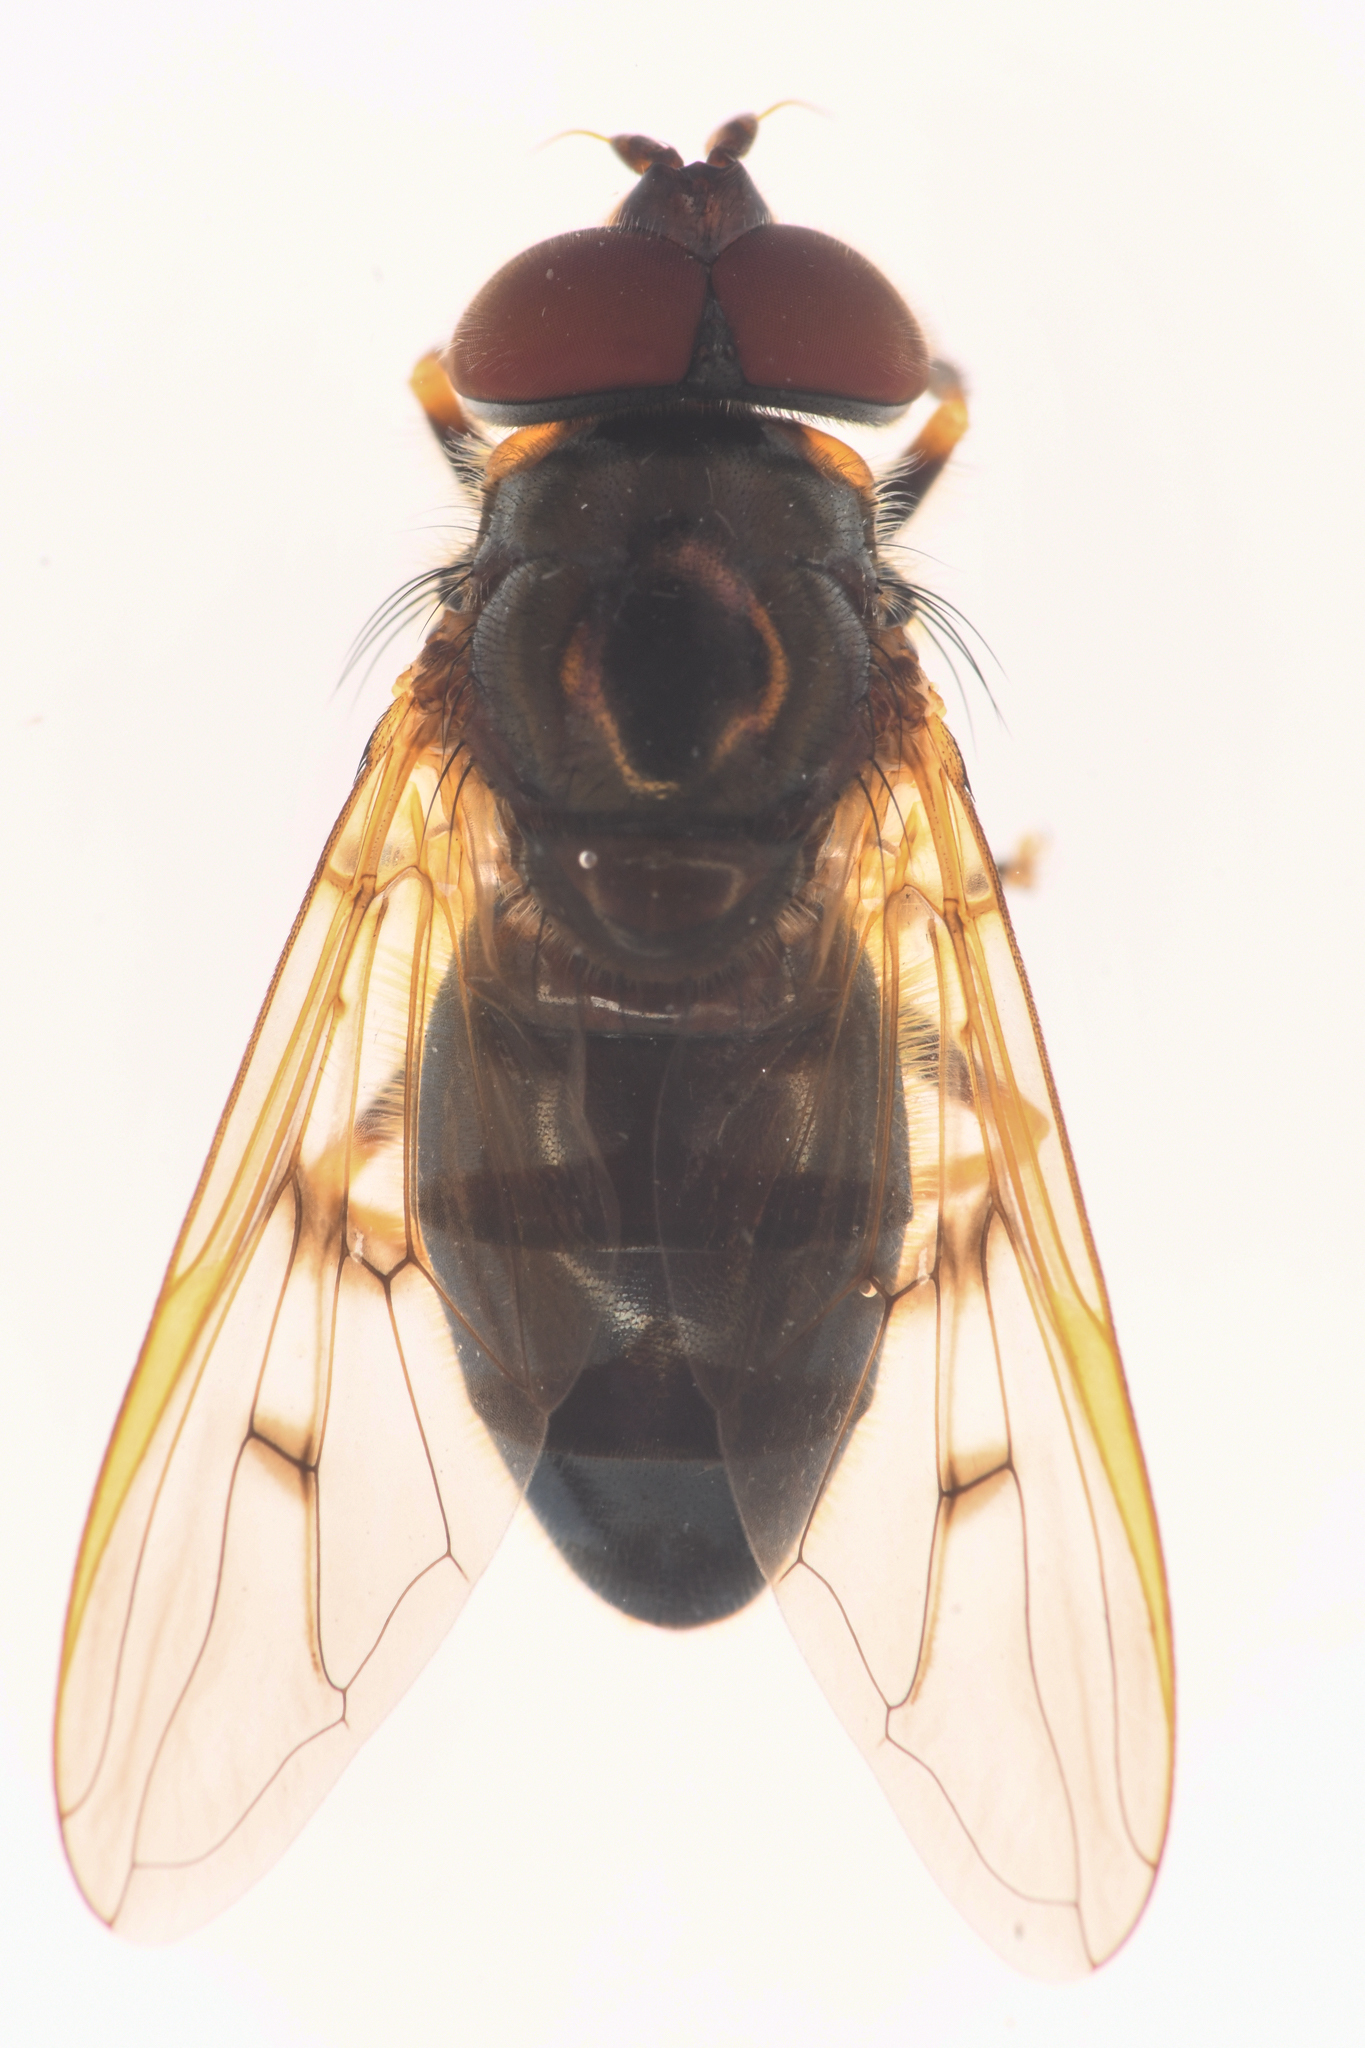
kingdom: Animalia
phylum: Arthropoda
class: Insecta
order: Diptera
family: Syrphidae
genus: Ferdinandea
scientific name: Ferdinandea buccata
